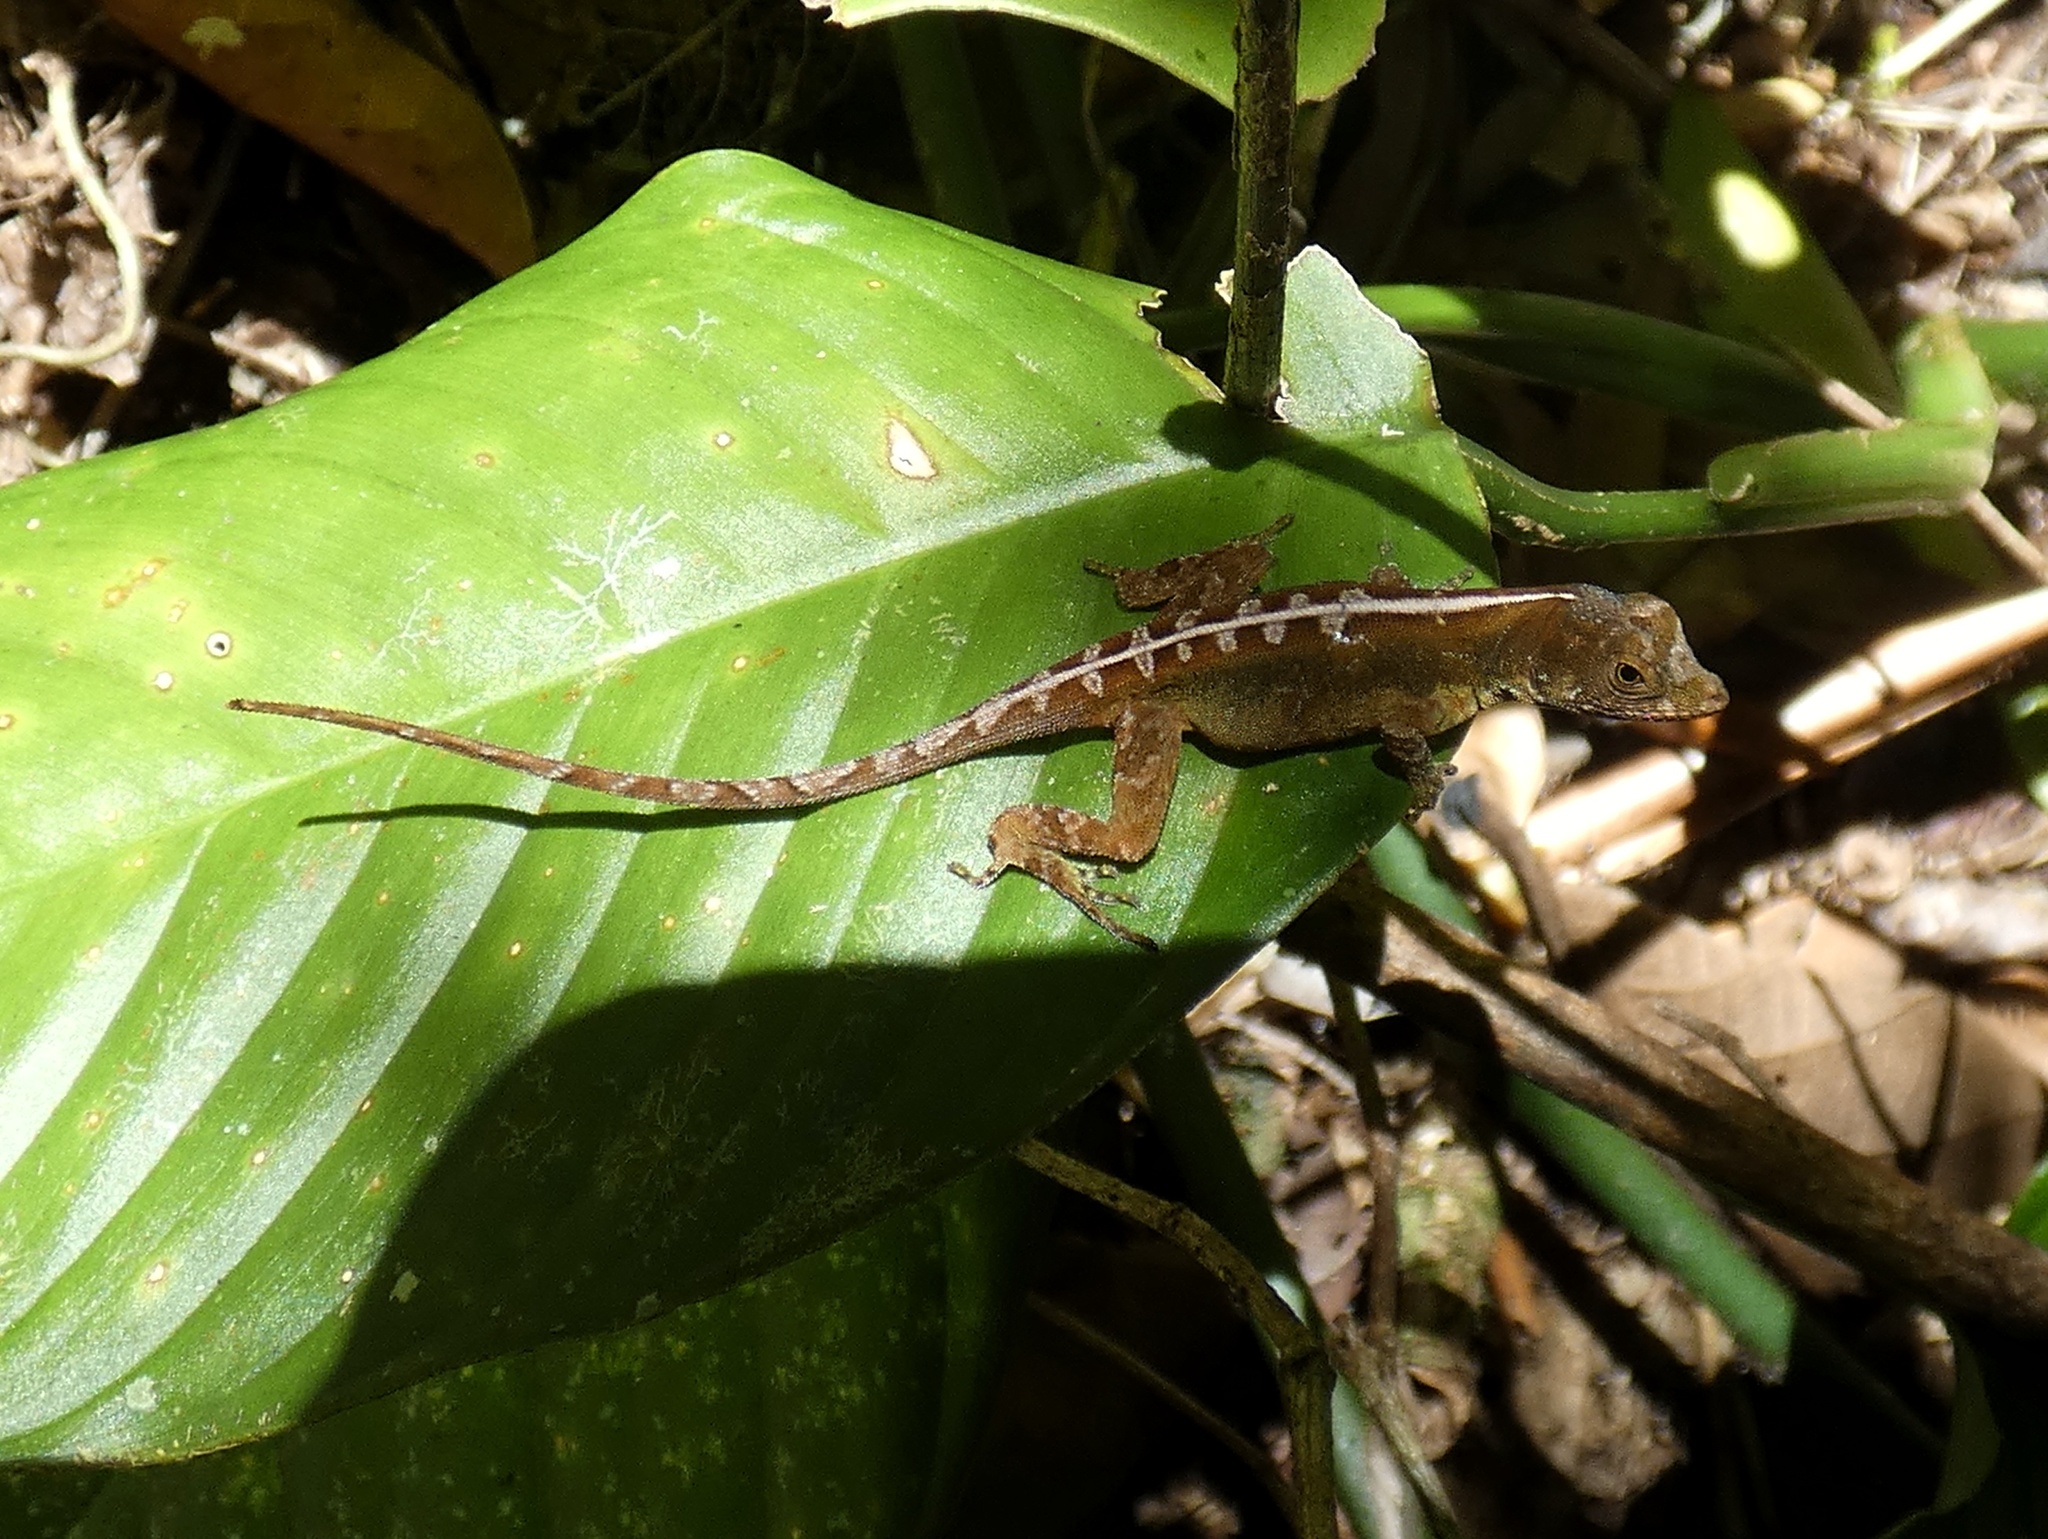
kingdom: Animalia
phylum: Chordata
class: Squamata
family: Dactyloidae
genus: Anolis
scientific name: Anolis humilis
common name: Humble anole
